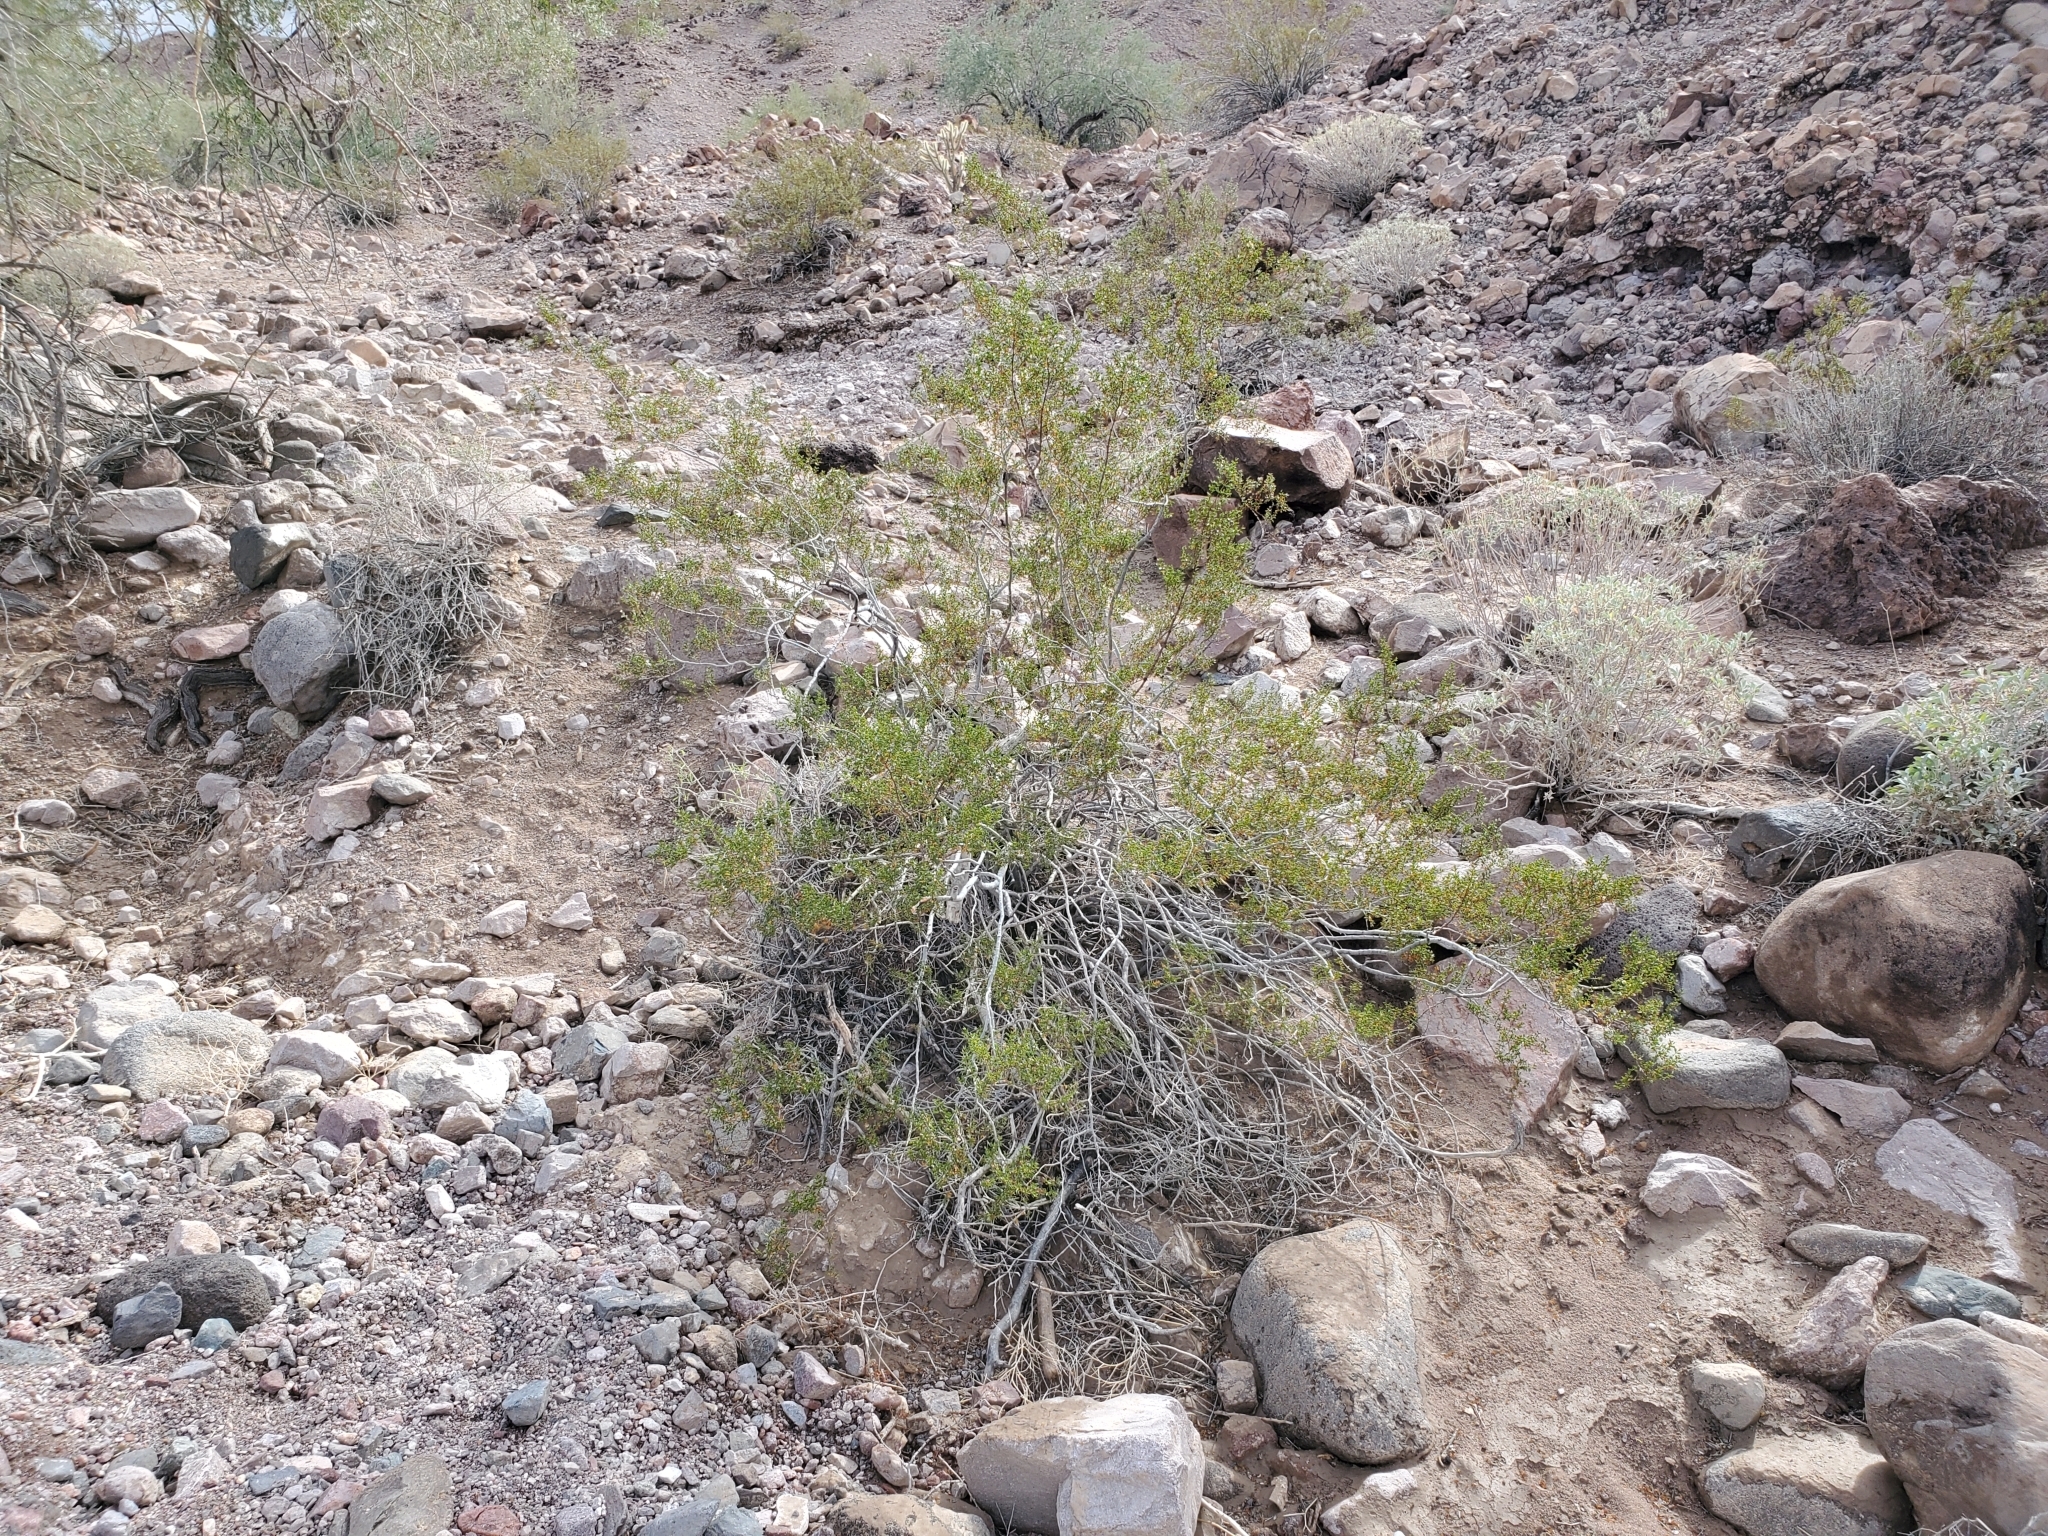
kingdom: Plantae
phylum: Tracheophyta
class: Magnoliopsida
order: Zygophyllales
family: Zygophyllaceae
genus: Larrea
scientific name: Larrea tridentata
